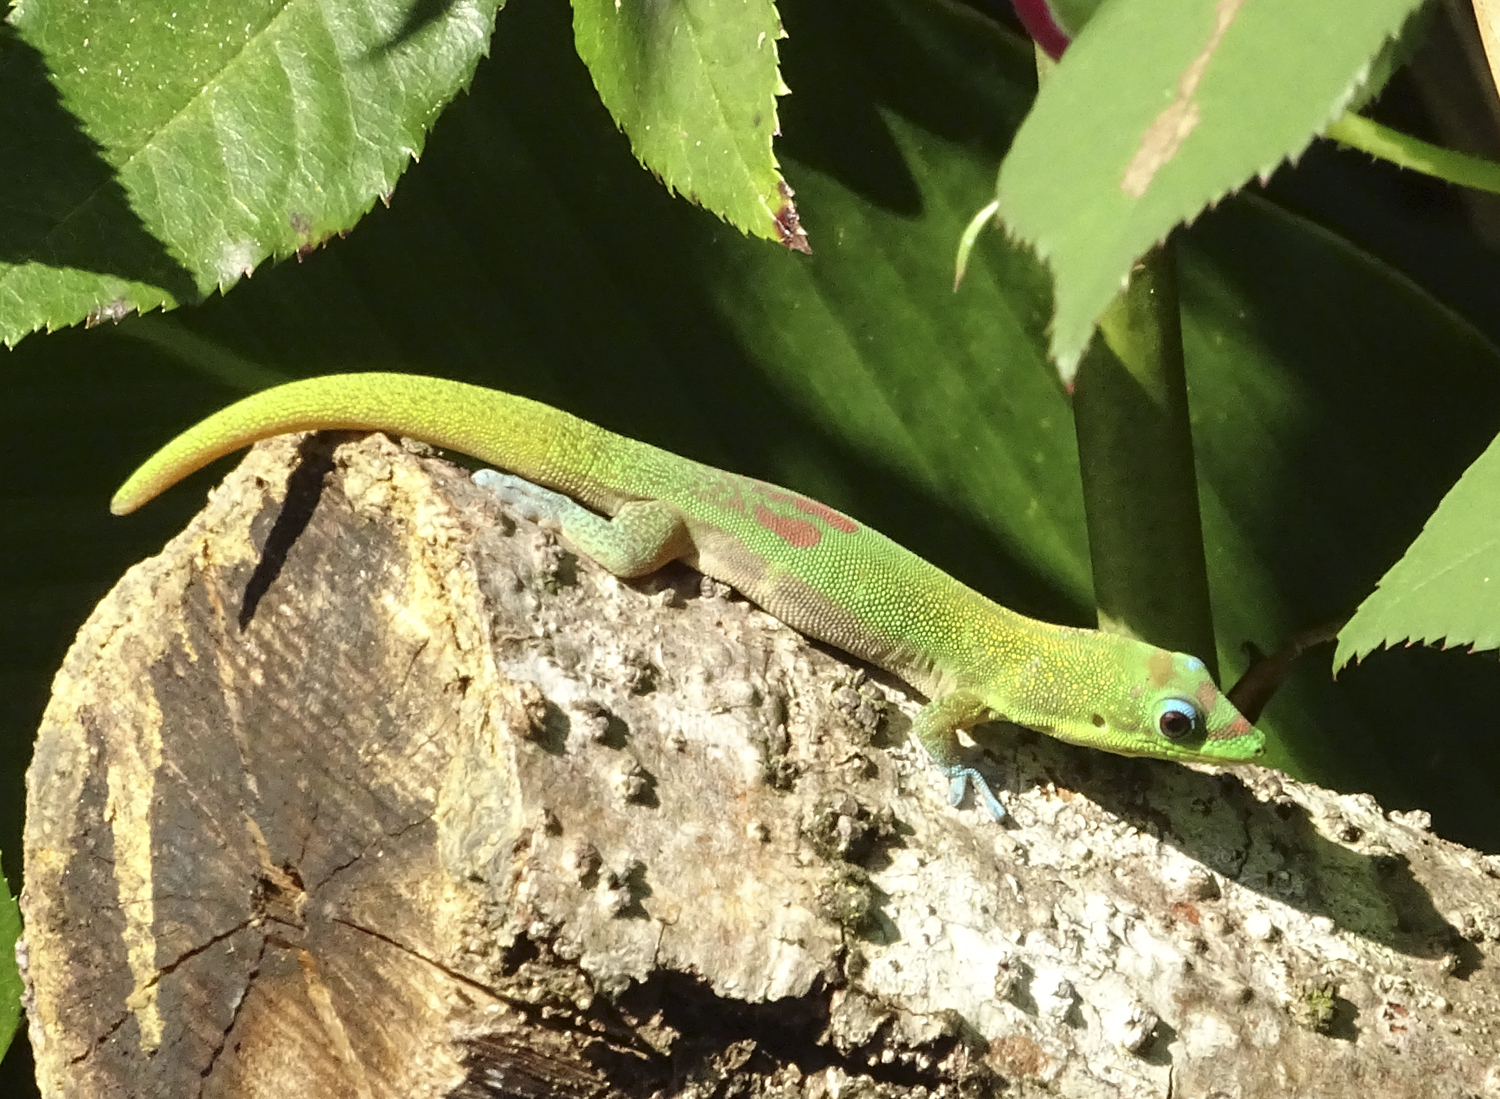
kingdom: Animalia
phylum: Chordata
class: Squamata
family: Gekkonidae
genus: Phelsuma
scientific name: Phelsuma laticauda
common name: Gold dust day gecko
